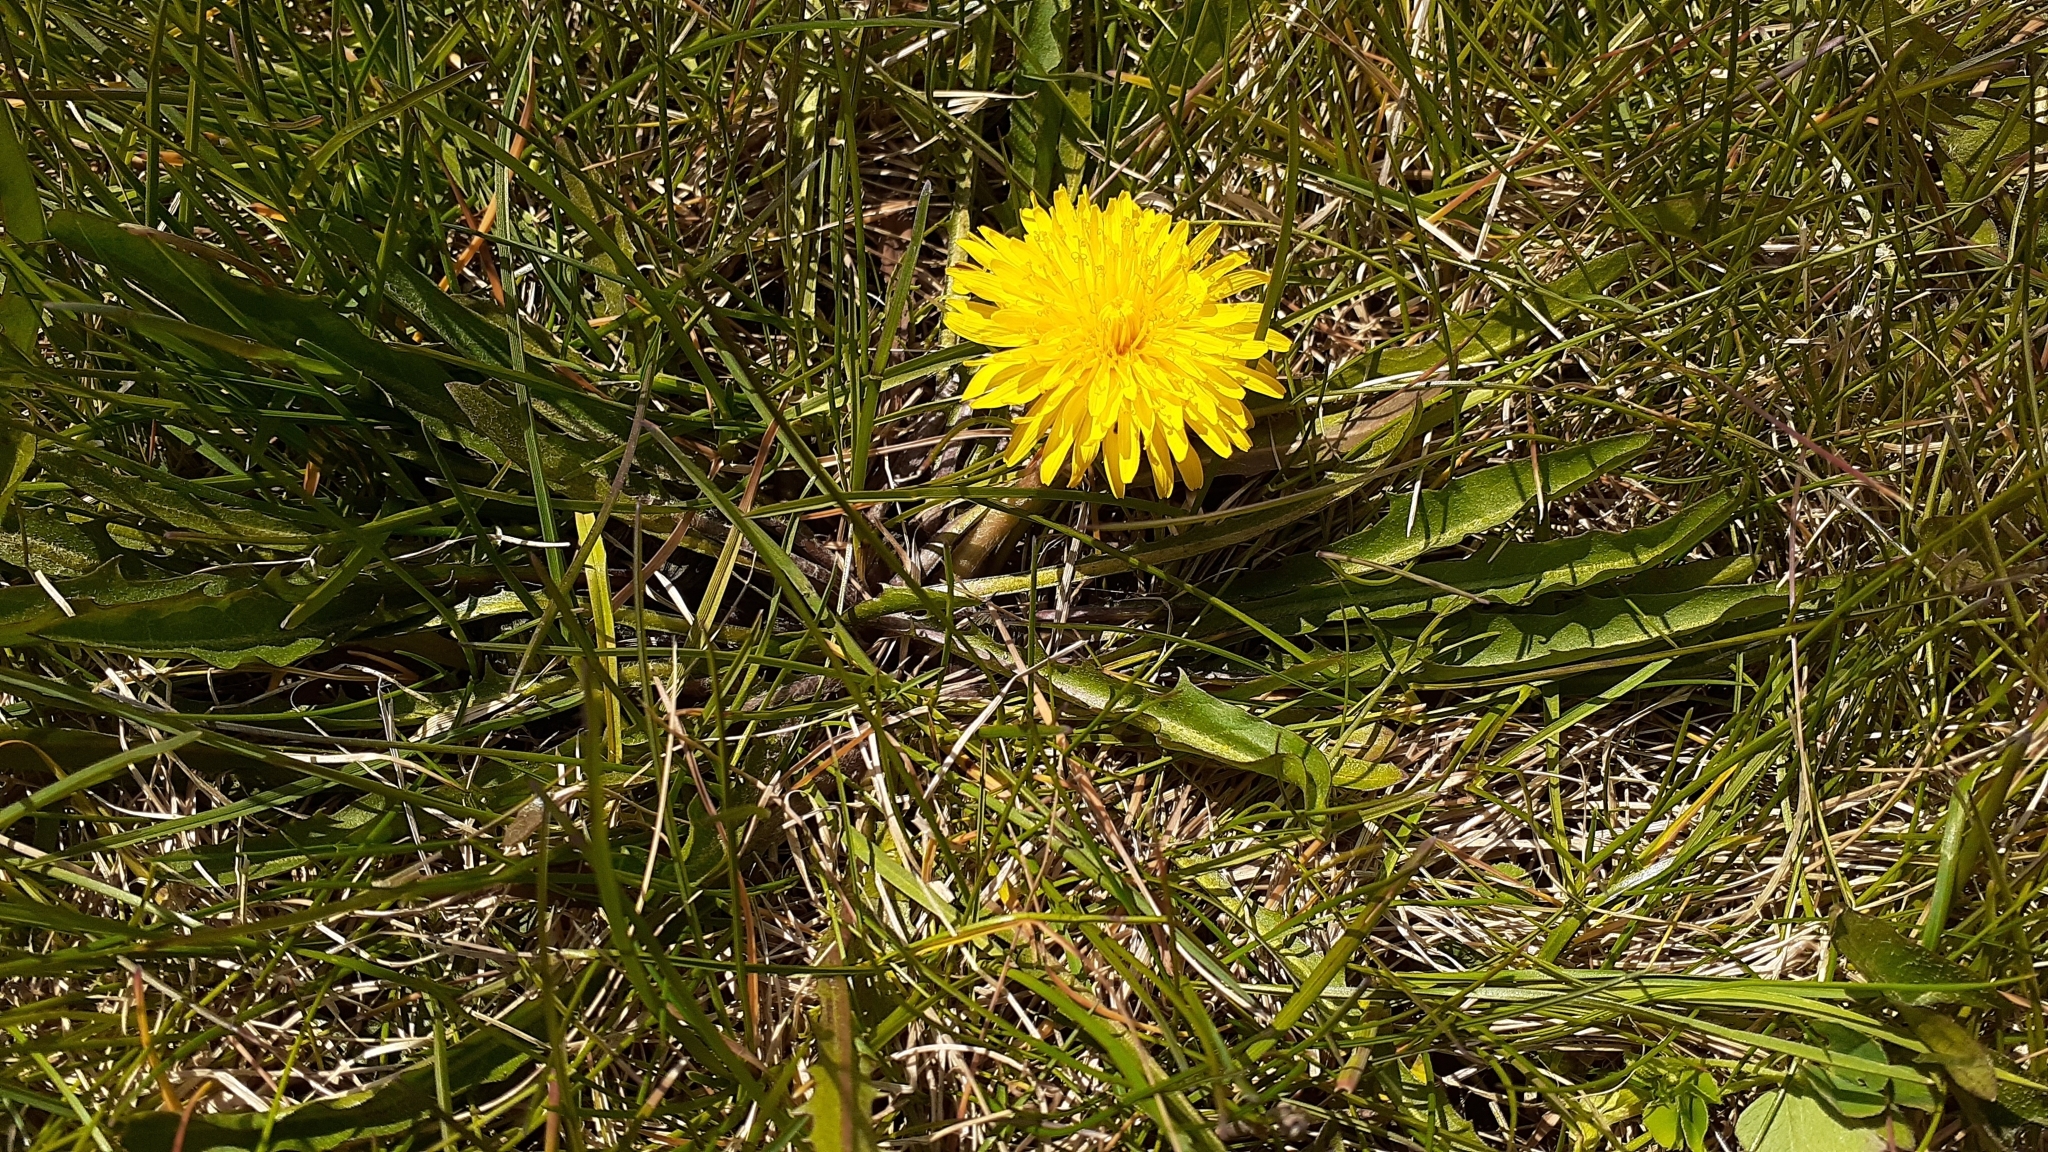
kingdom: Plantae
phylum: Tracheophyta
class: Magnoliopsida
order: Asterales
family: Asteraceae
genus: Taraxacum
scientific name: Taraxacum palustre
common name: Marsh dandelion
